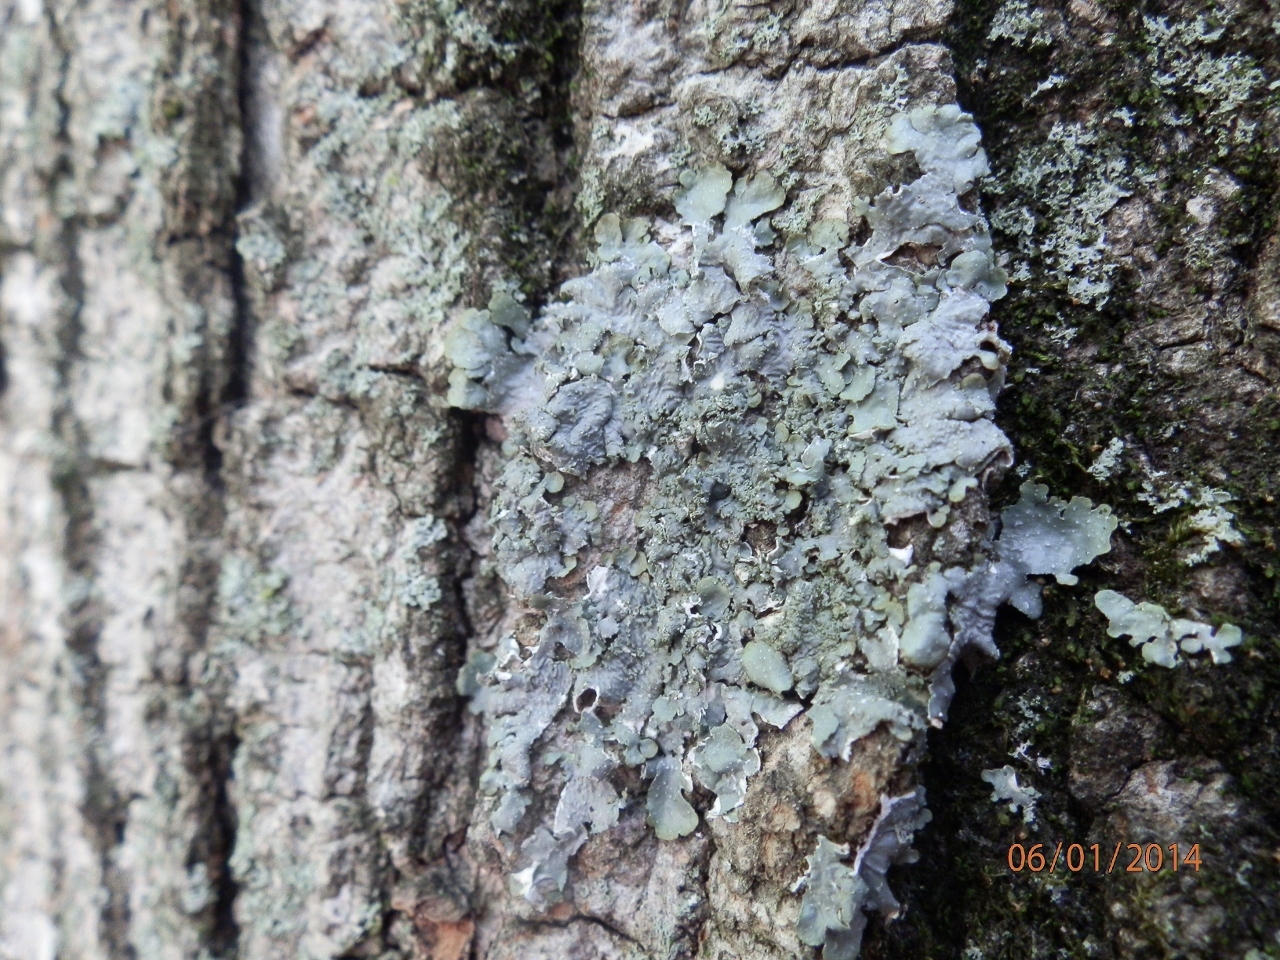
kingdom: Fungi
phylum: Ascomycota
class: Lecanoromycetes
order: Lecanorales
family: Parmeliaceae
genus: Punctelia
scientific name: Punctelia missouriensis
